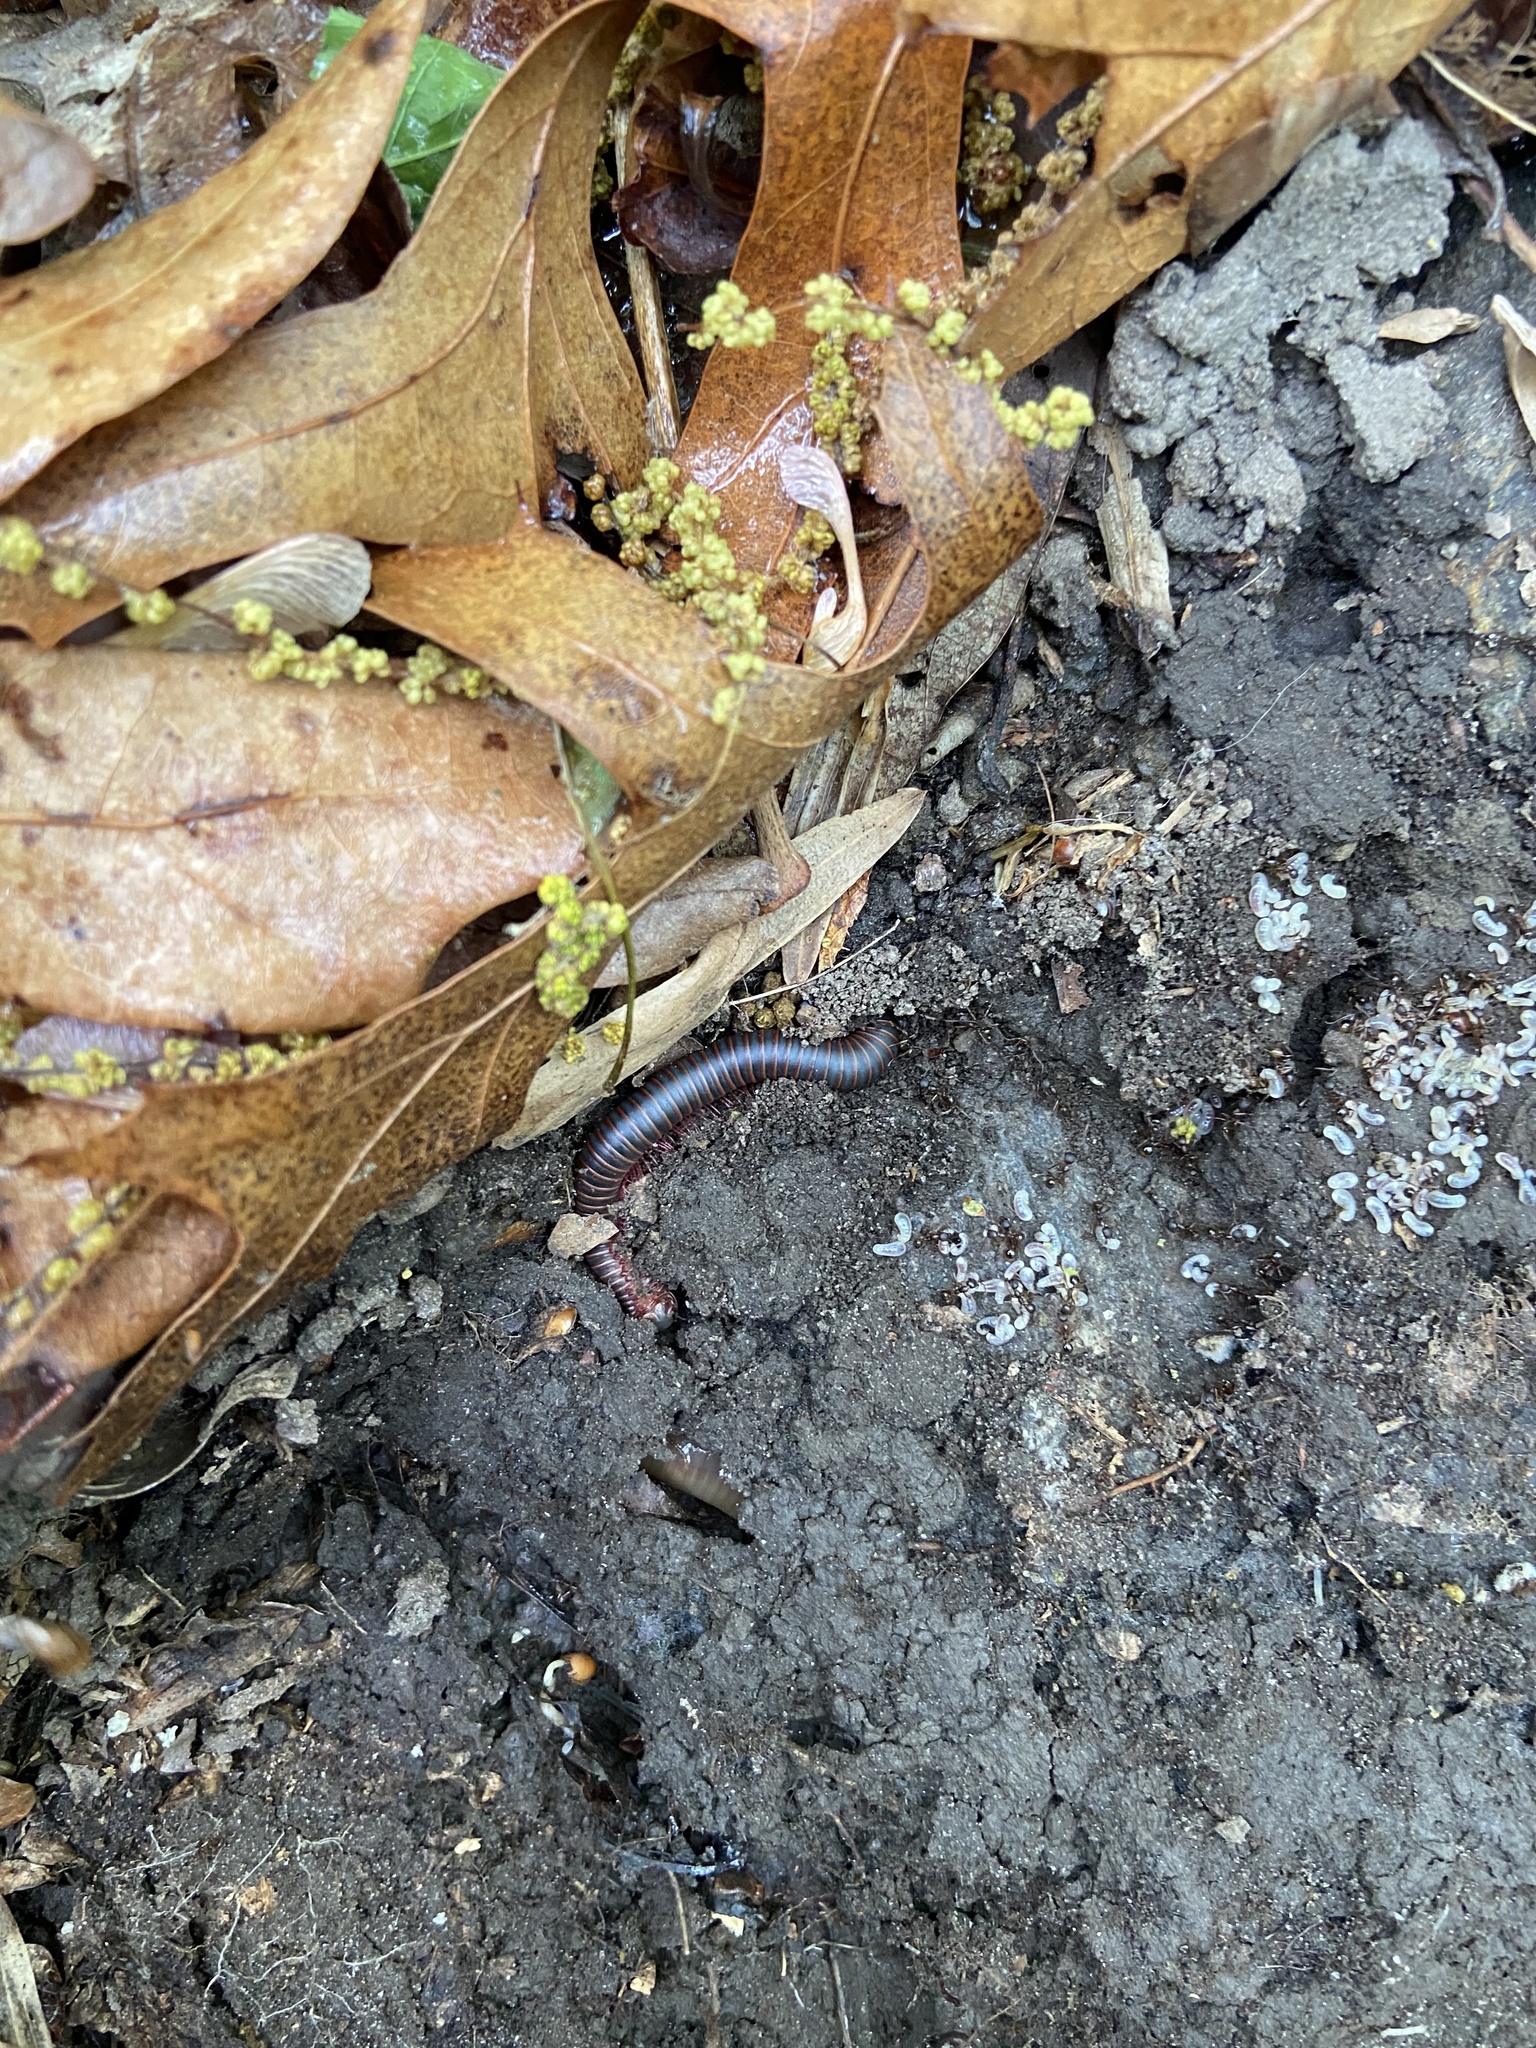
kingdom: Animalia
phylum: Arthropoda
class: Diplopoda
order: Spirobolida
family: Spirobolidae
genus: Narceus
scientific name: Narceus
